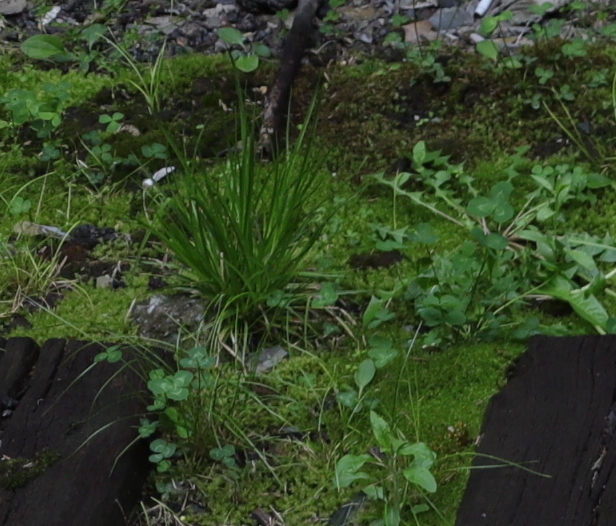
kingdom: Plantae
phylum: Tracheophyta
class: Magnoliopsida
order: Fabales
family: Fabaceae
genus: Trifolium
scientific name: Trifolium repens
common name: White clover
